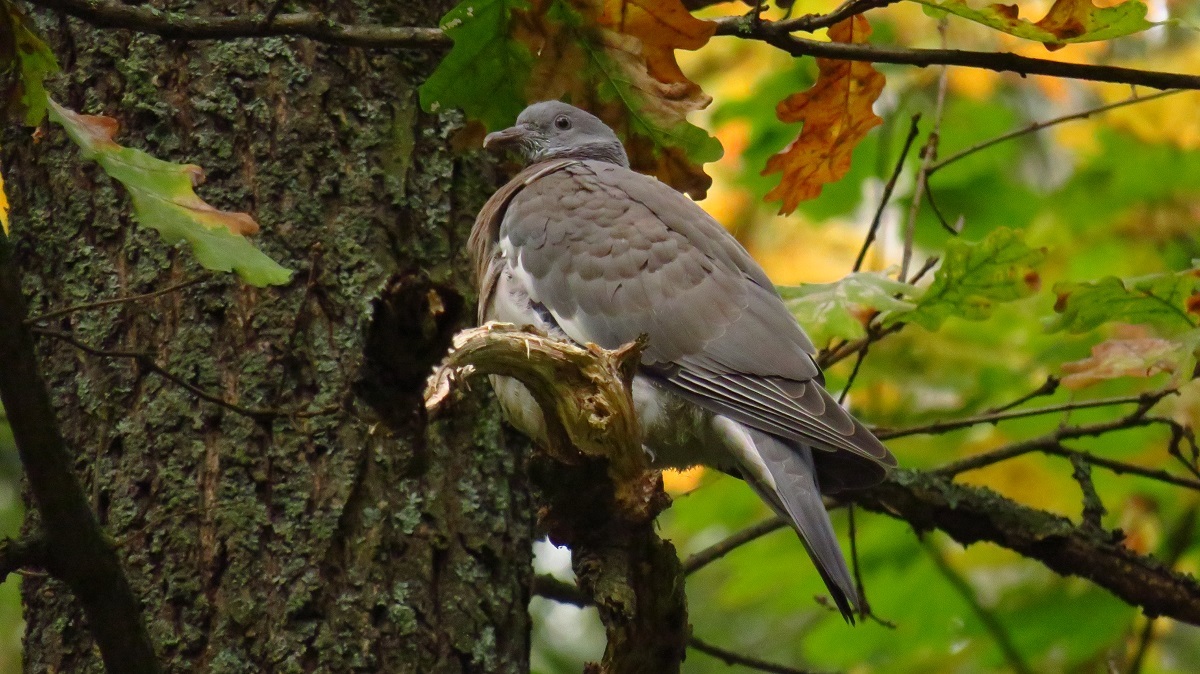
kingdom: Animalia
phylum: Chordata
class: Aves
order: Columbiformes
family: Columbidae
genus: Columba
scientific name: Columba palumbus
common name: Common wood pigeon
